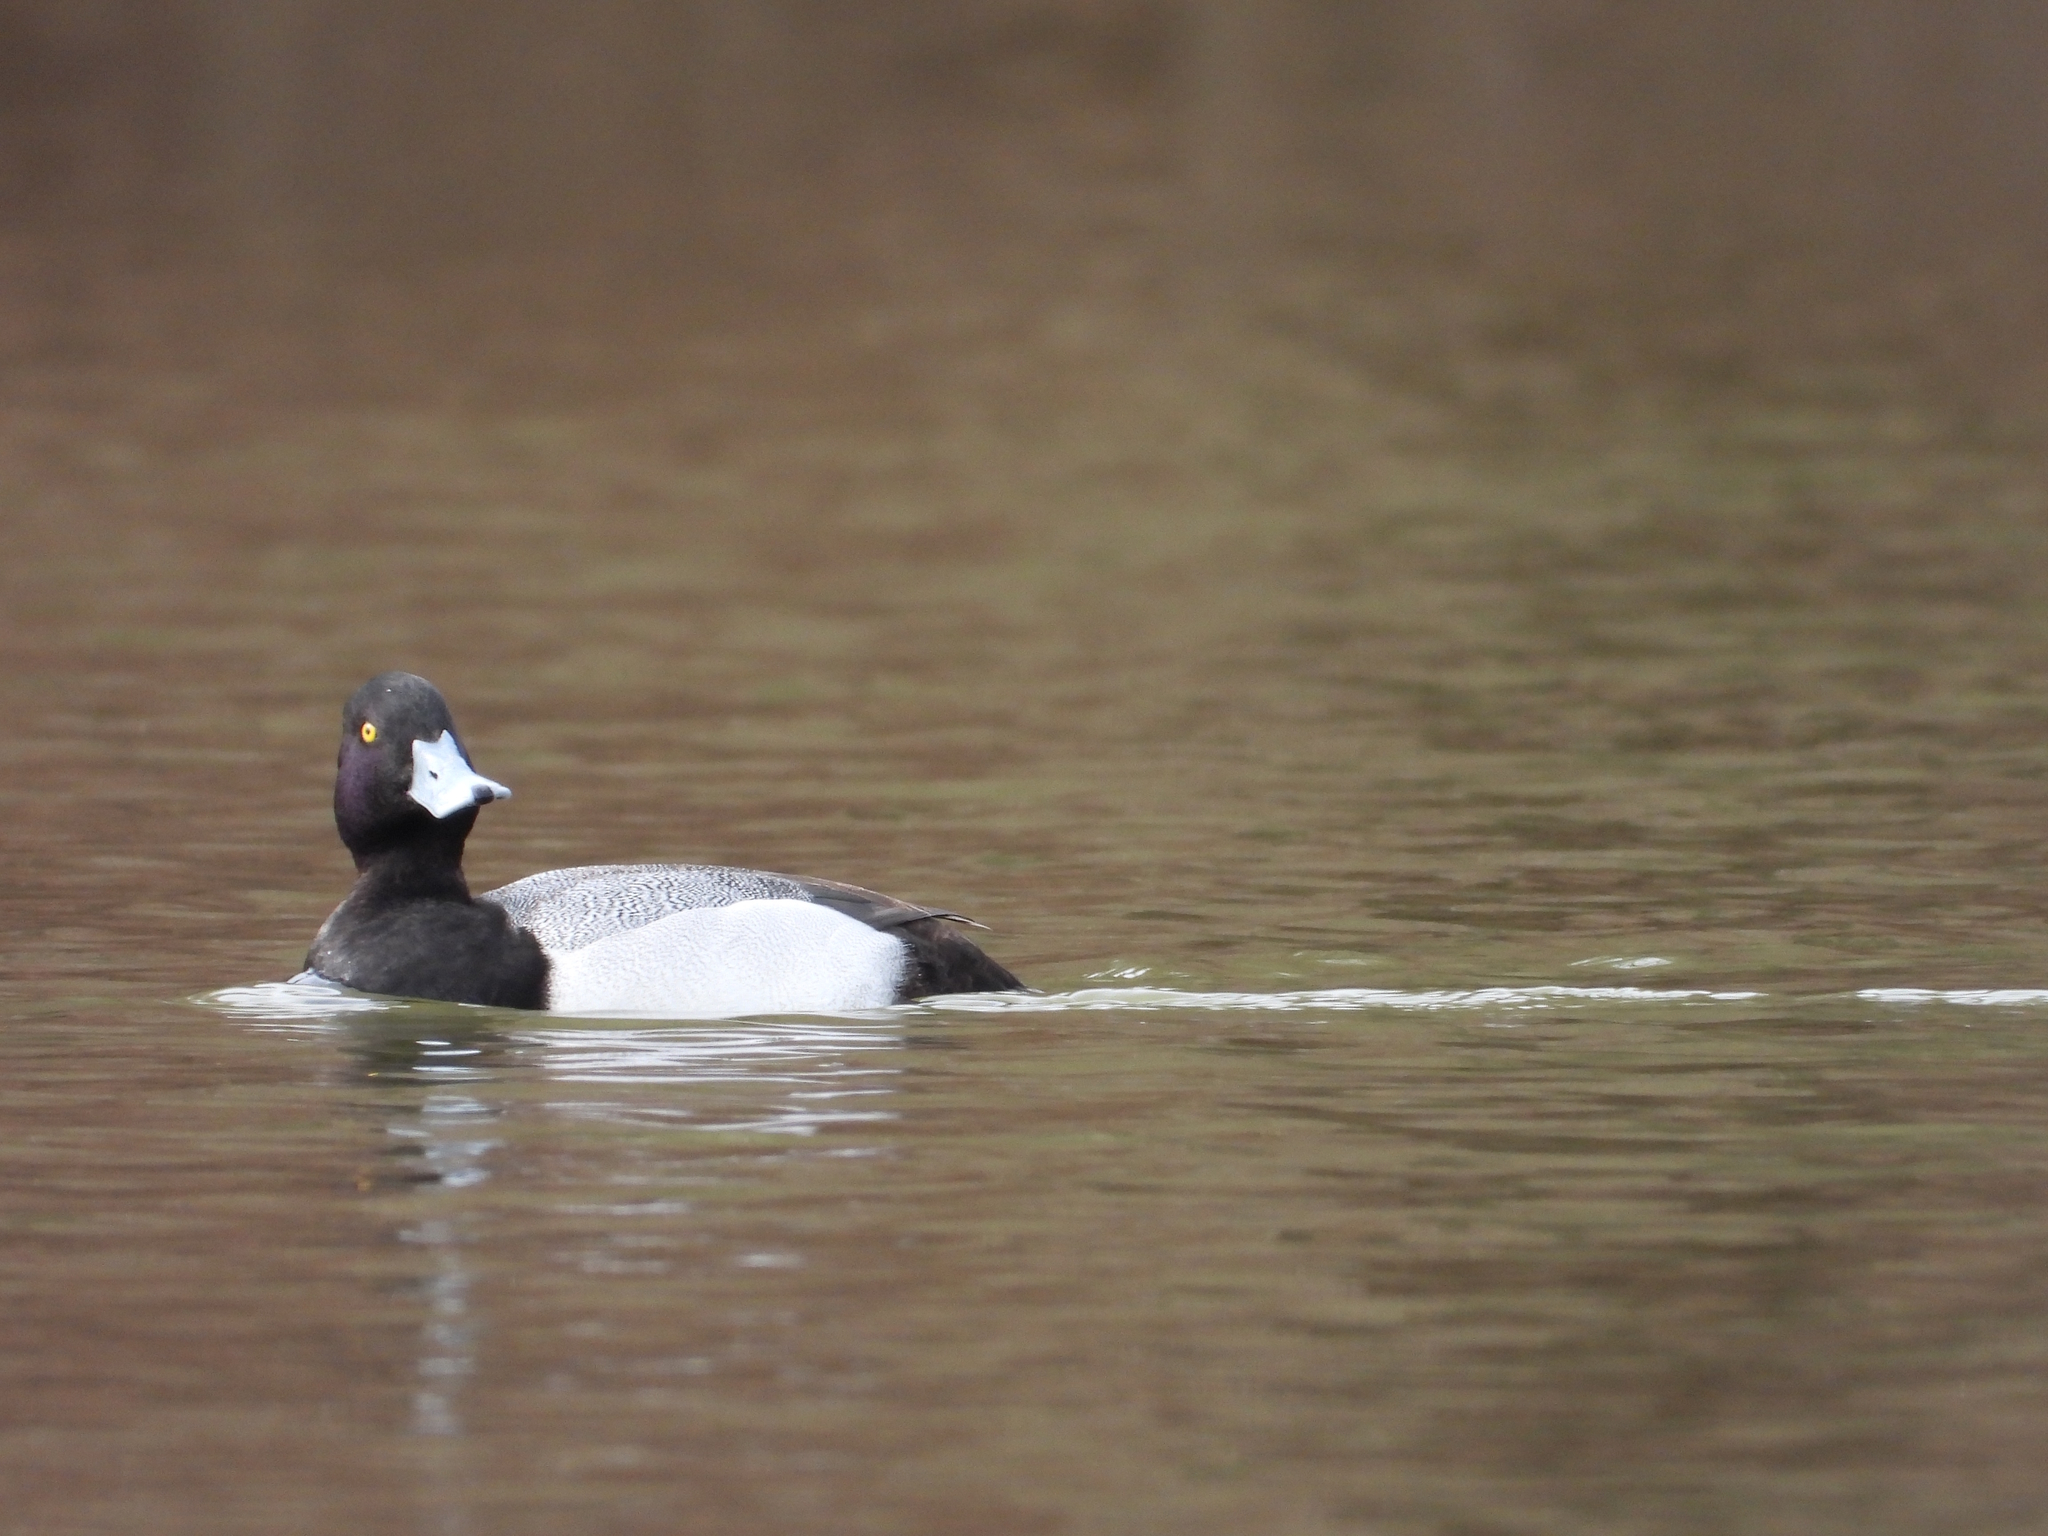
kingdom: Animalia
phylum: Chordata
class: Aves
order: Anseriformes
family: Anatidae
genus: Aythya
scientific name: Aythya affinis
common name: Lesser scaup
